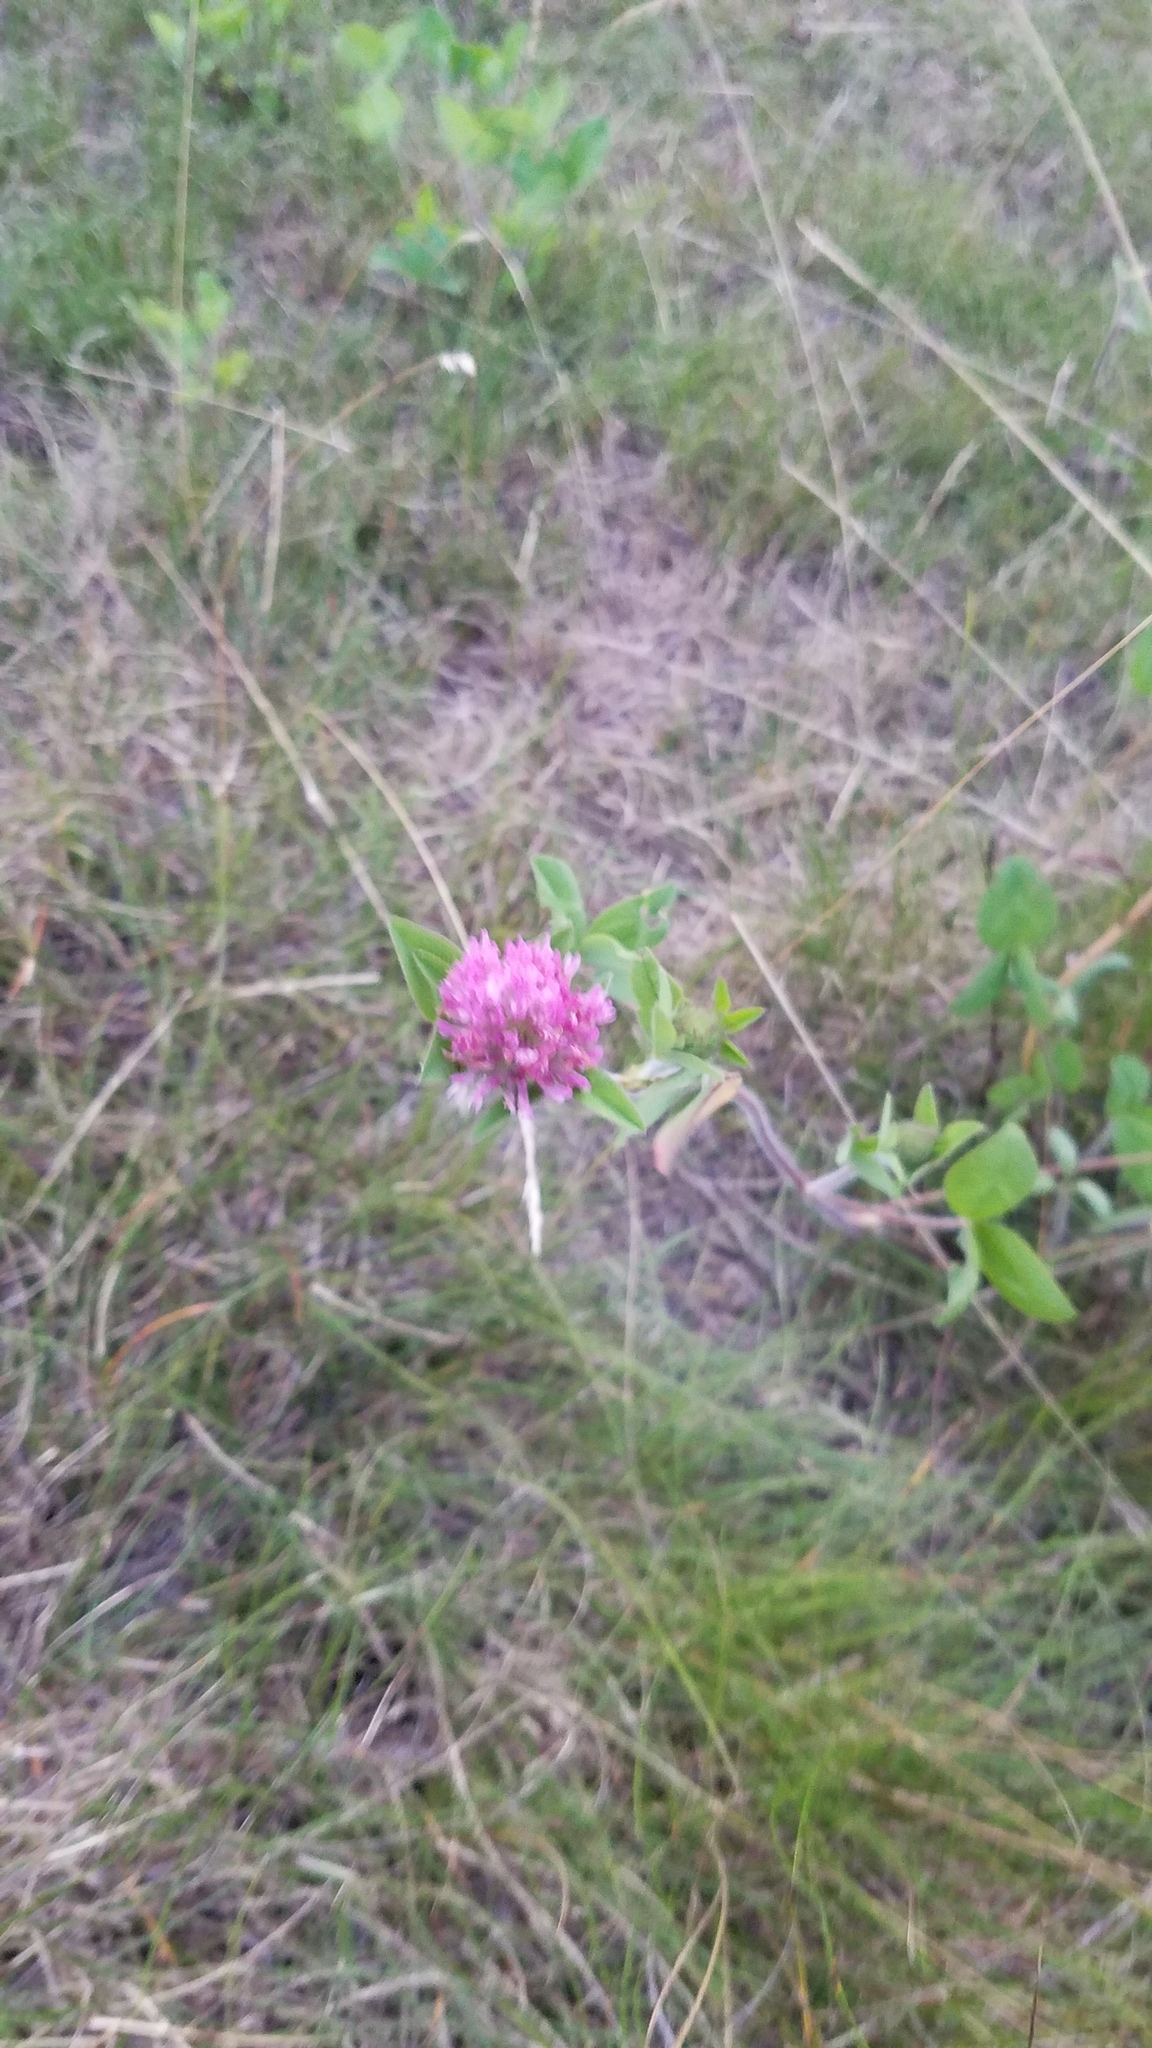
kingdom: Plantae
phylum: Tracheophyta
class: Magnoliopsida
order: Fabales
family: Fabaceae
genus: Trifolium
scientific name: Trifolium pratense
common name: Red clover
